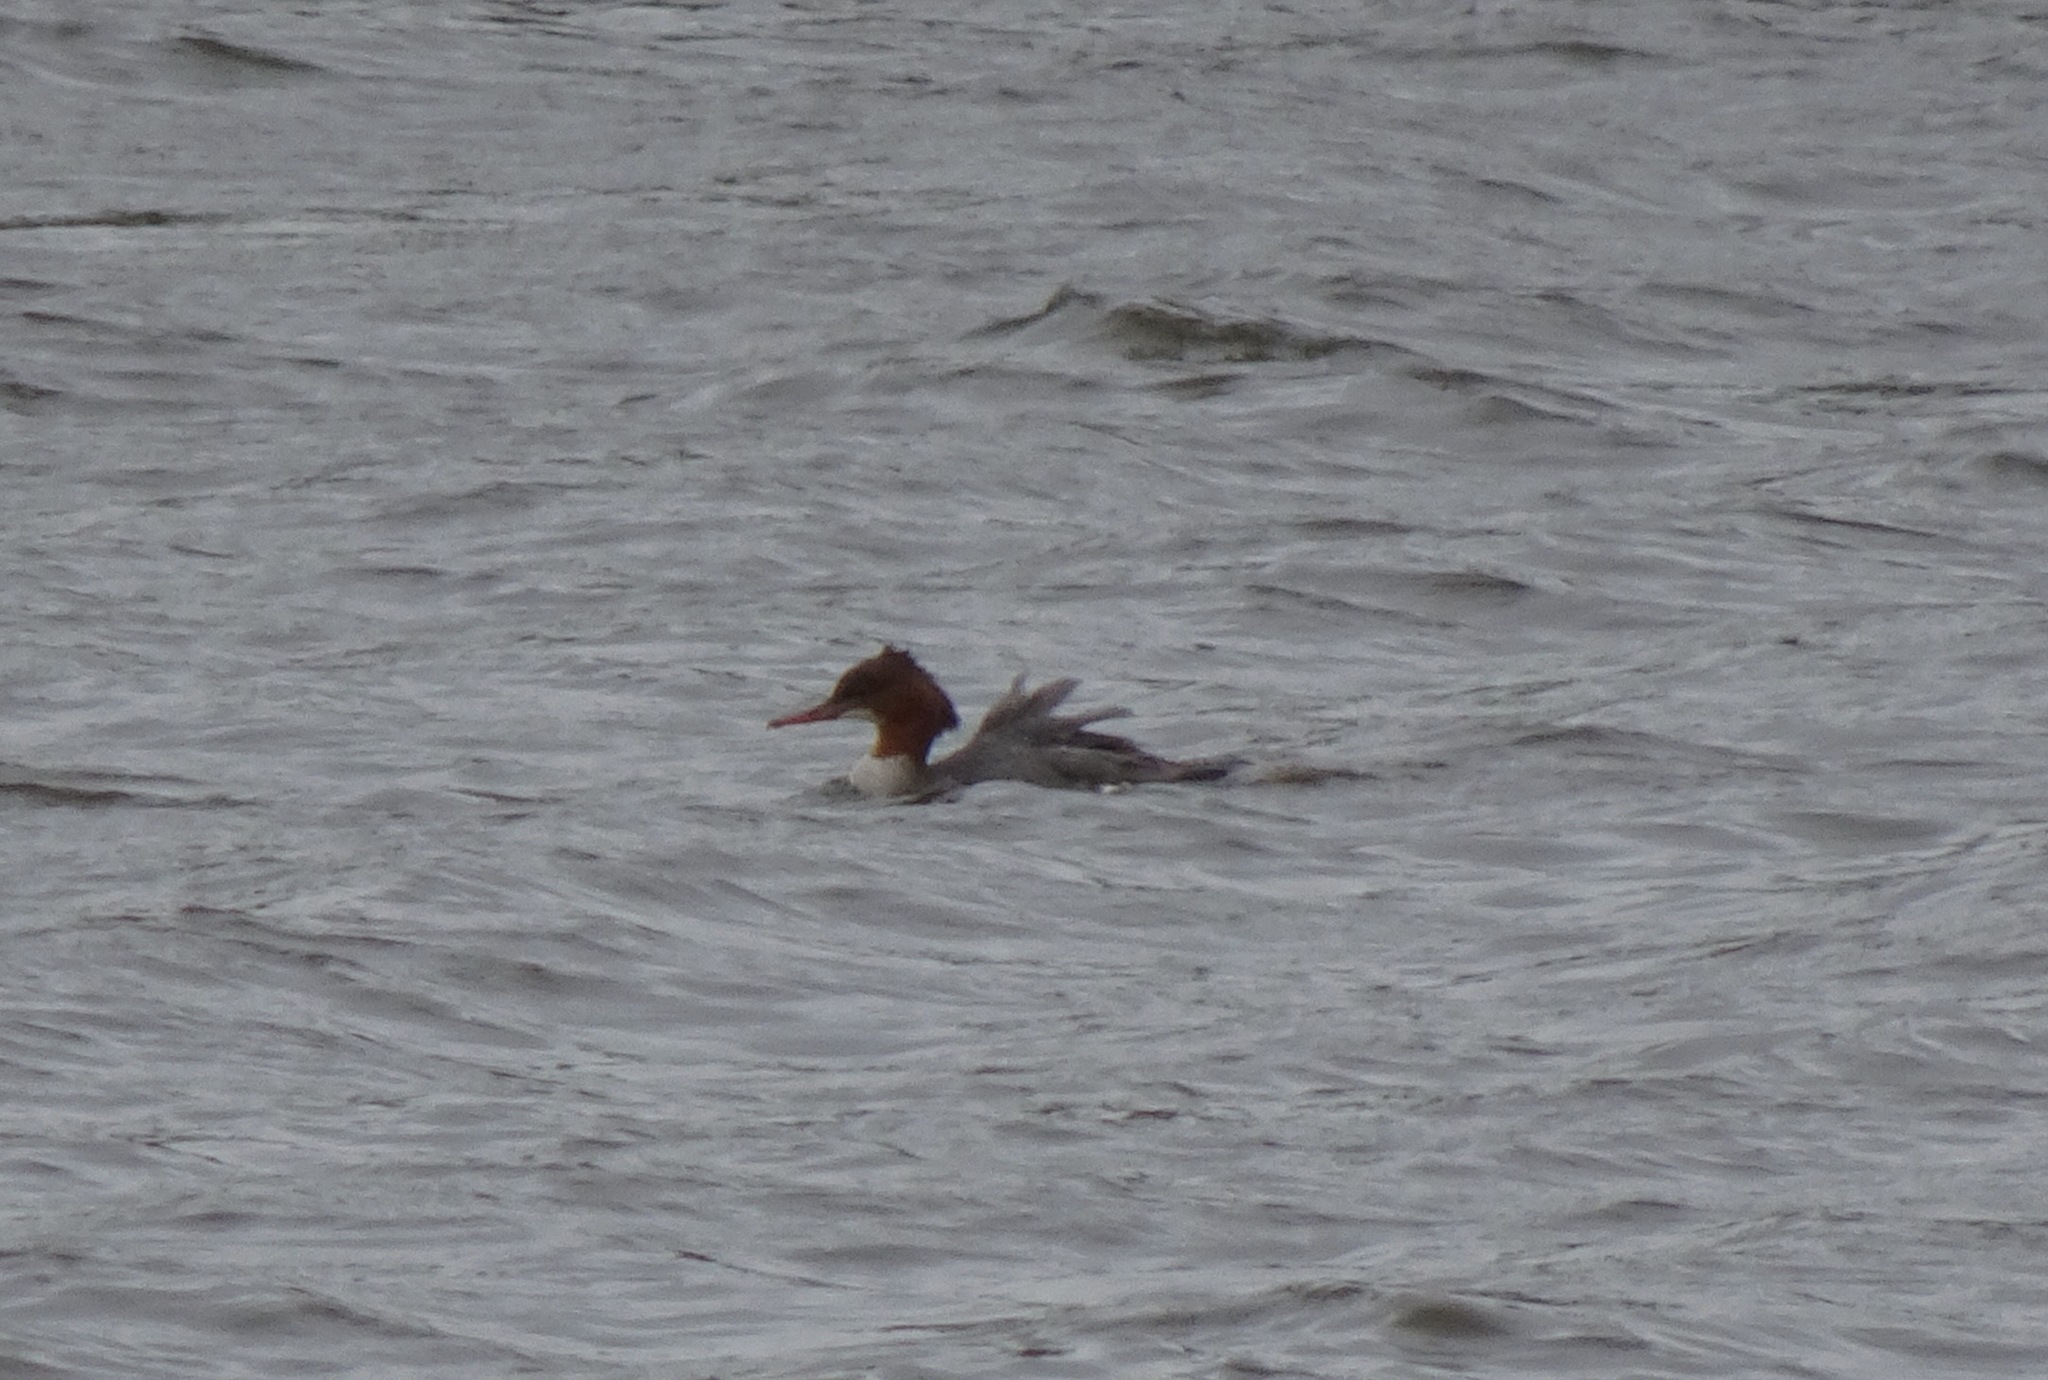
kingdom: Animalia
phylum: Chordata
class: Aves
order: Anseriformes
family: Anatidae
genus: Mergus
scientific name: Mergus merganser
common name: Common merganser
